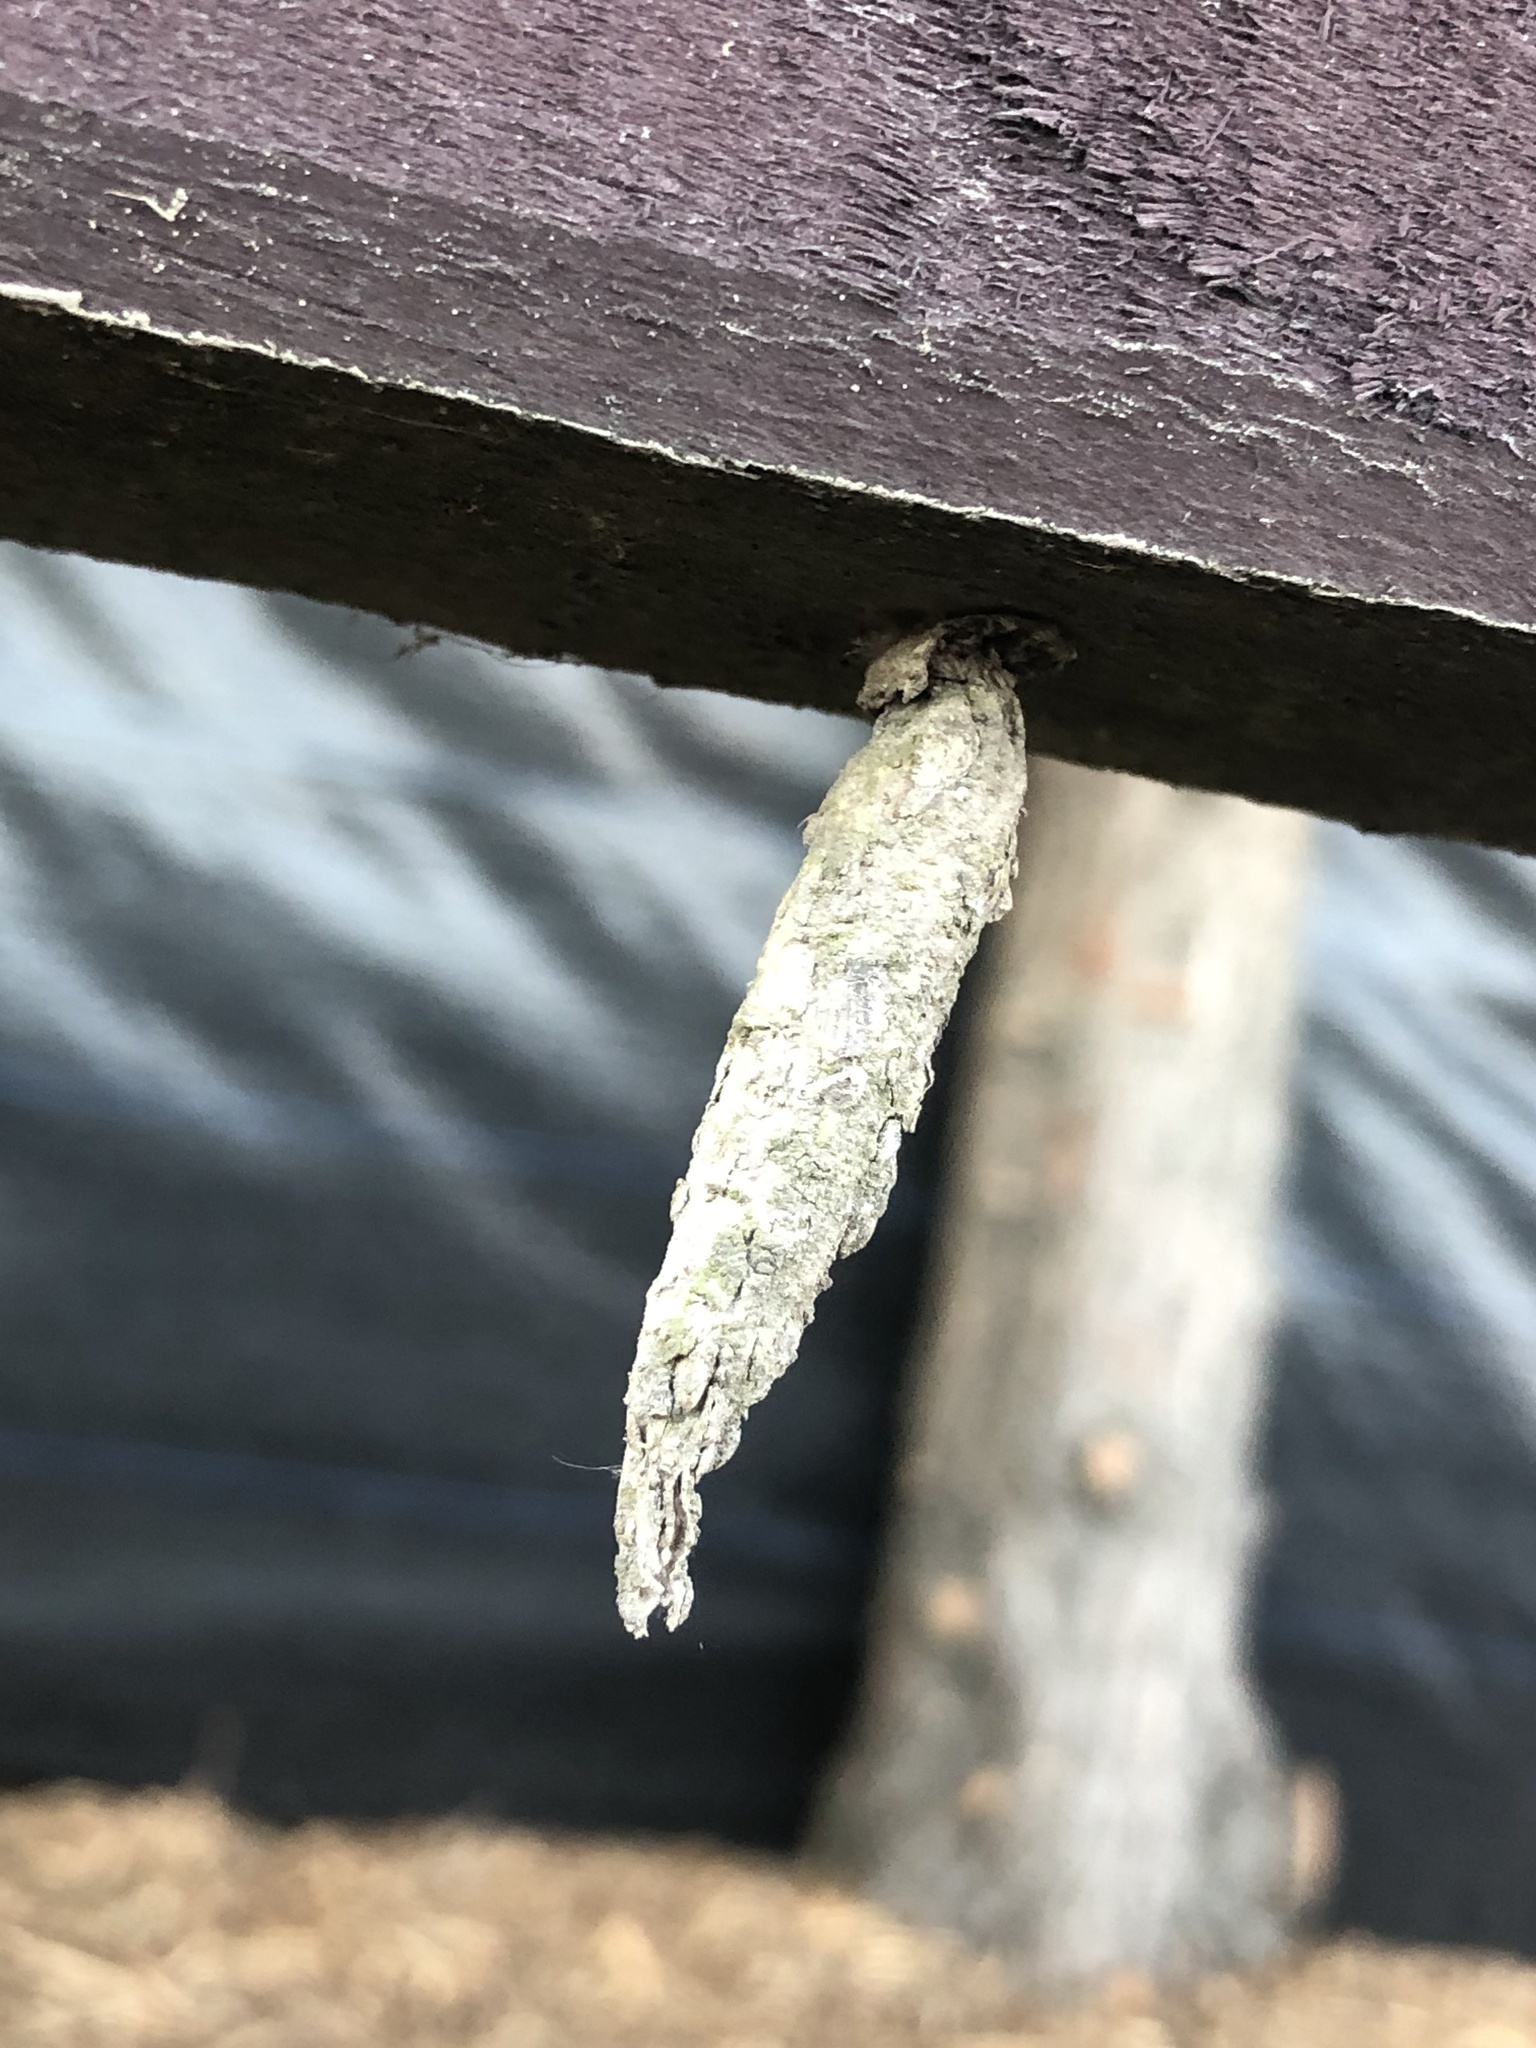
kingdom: Animalia
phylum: Arthropoda
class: Insecta
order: Lepidoptera
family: Psychidae
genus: Liothula
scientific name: Liothula omnivora
